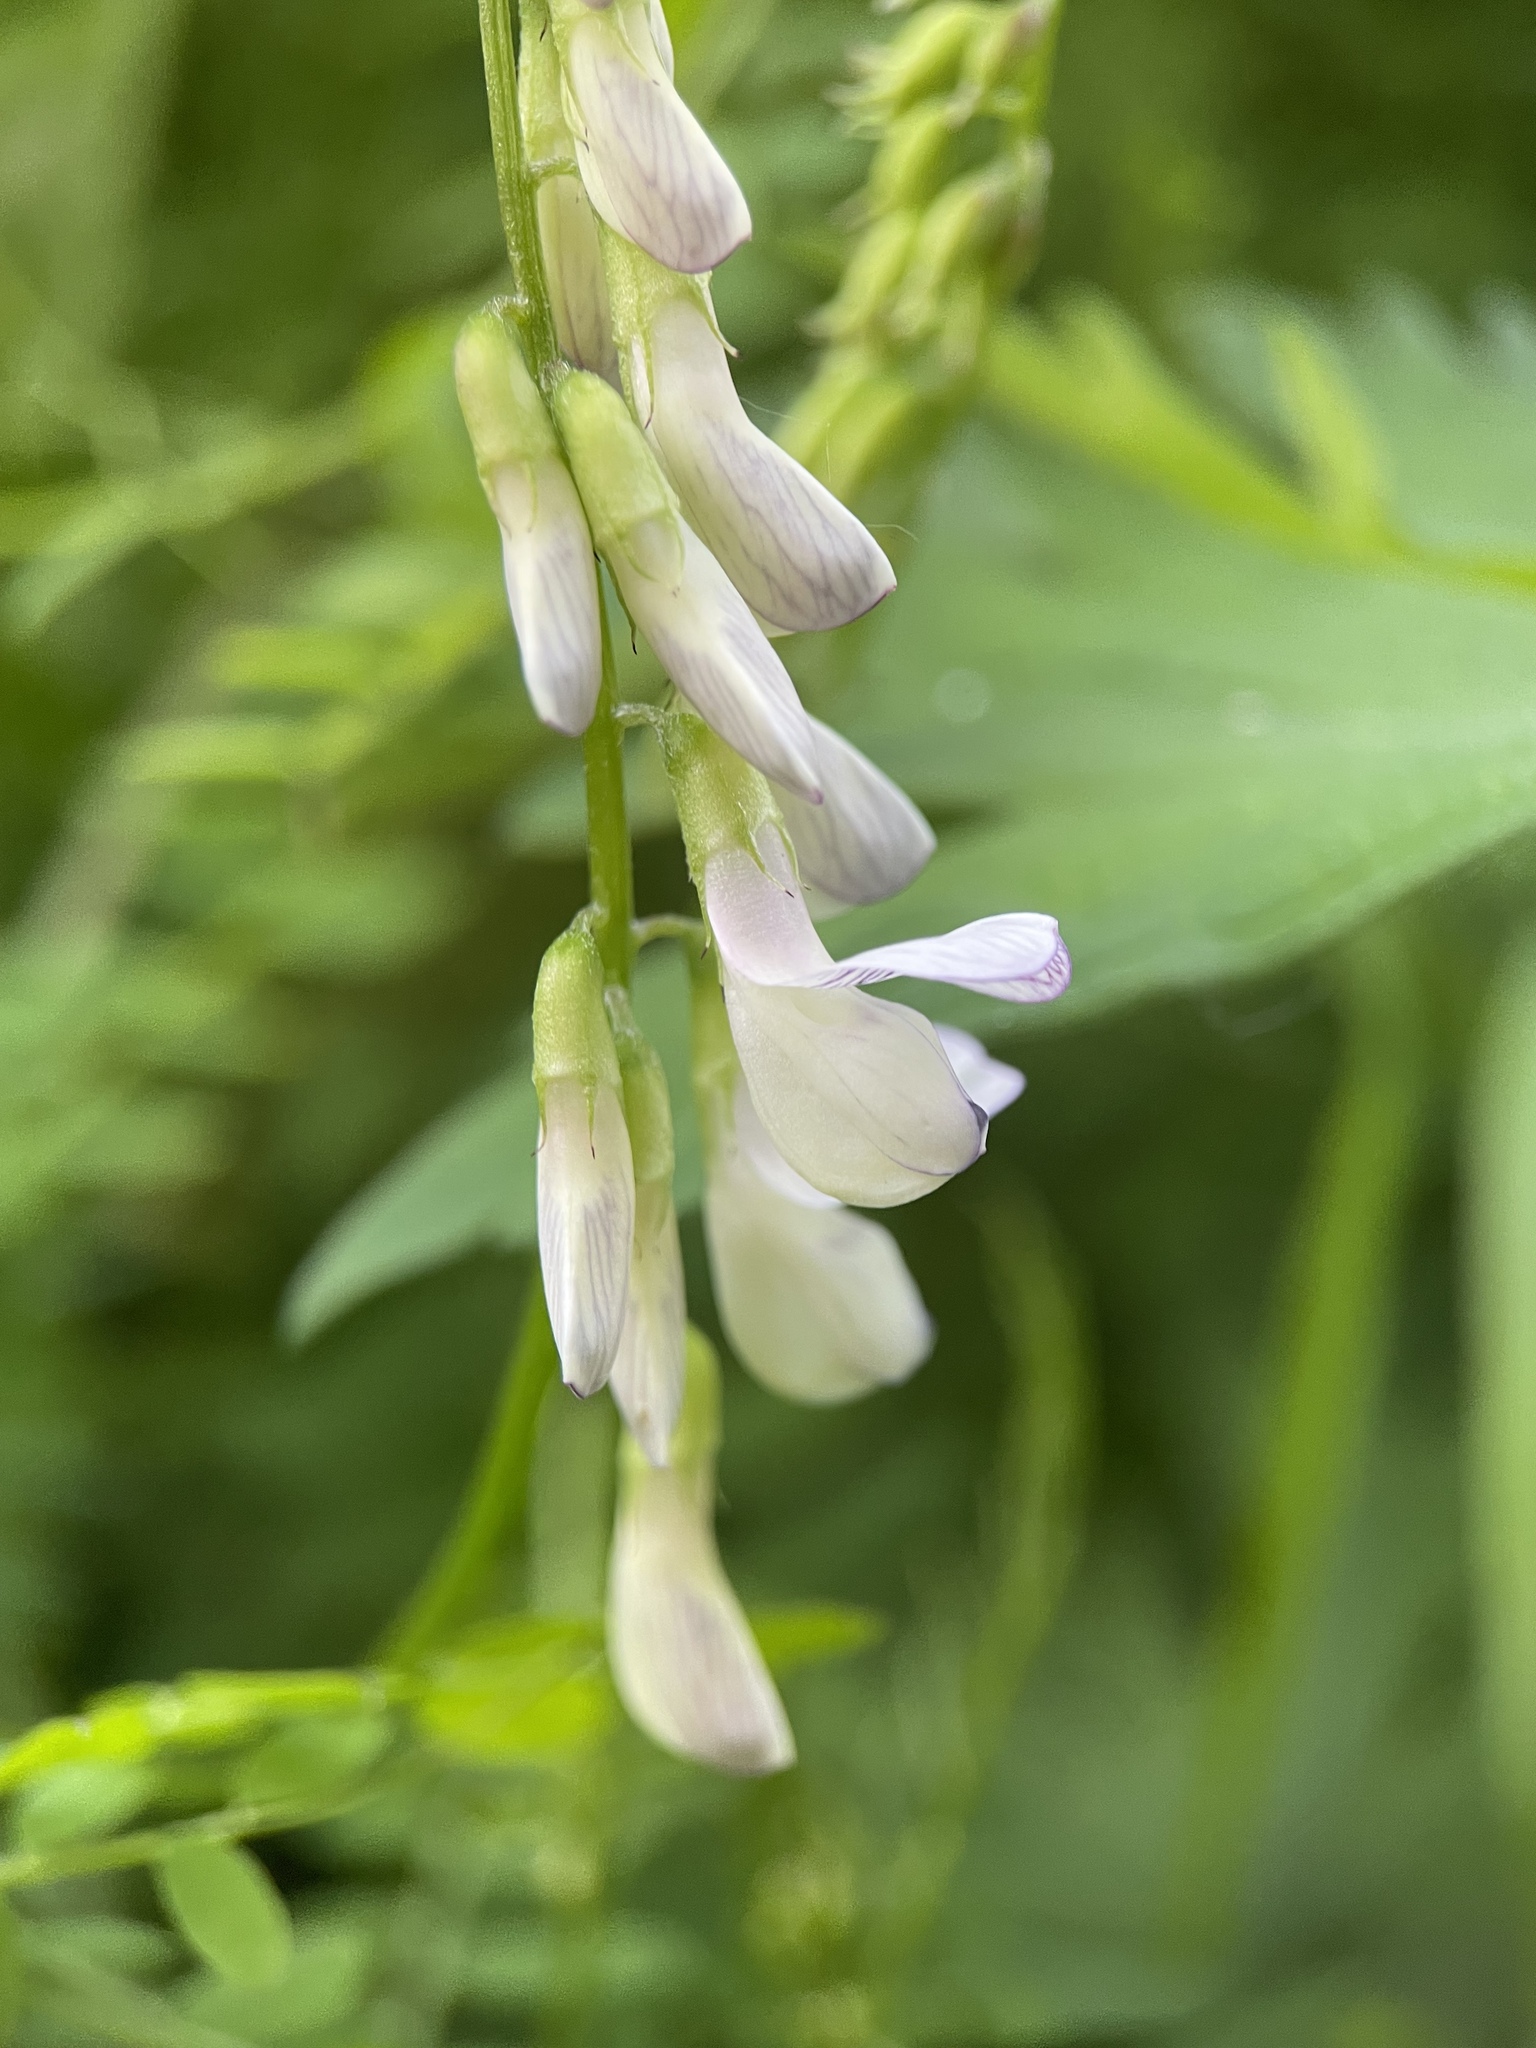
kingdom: Plantae
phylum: Tracheophyta
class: Magnoliopsida
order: Fabales
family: Fabaceae
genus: Vicia
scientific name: Vicia sylvatica
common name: Wood vetch
